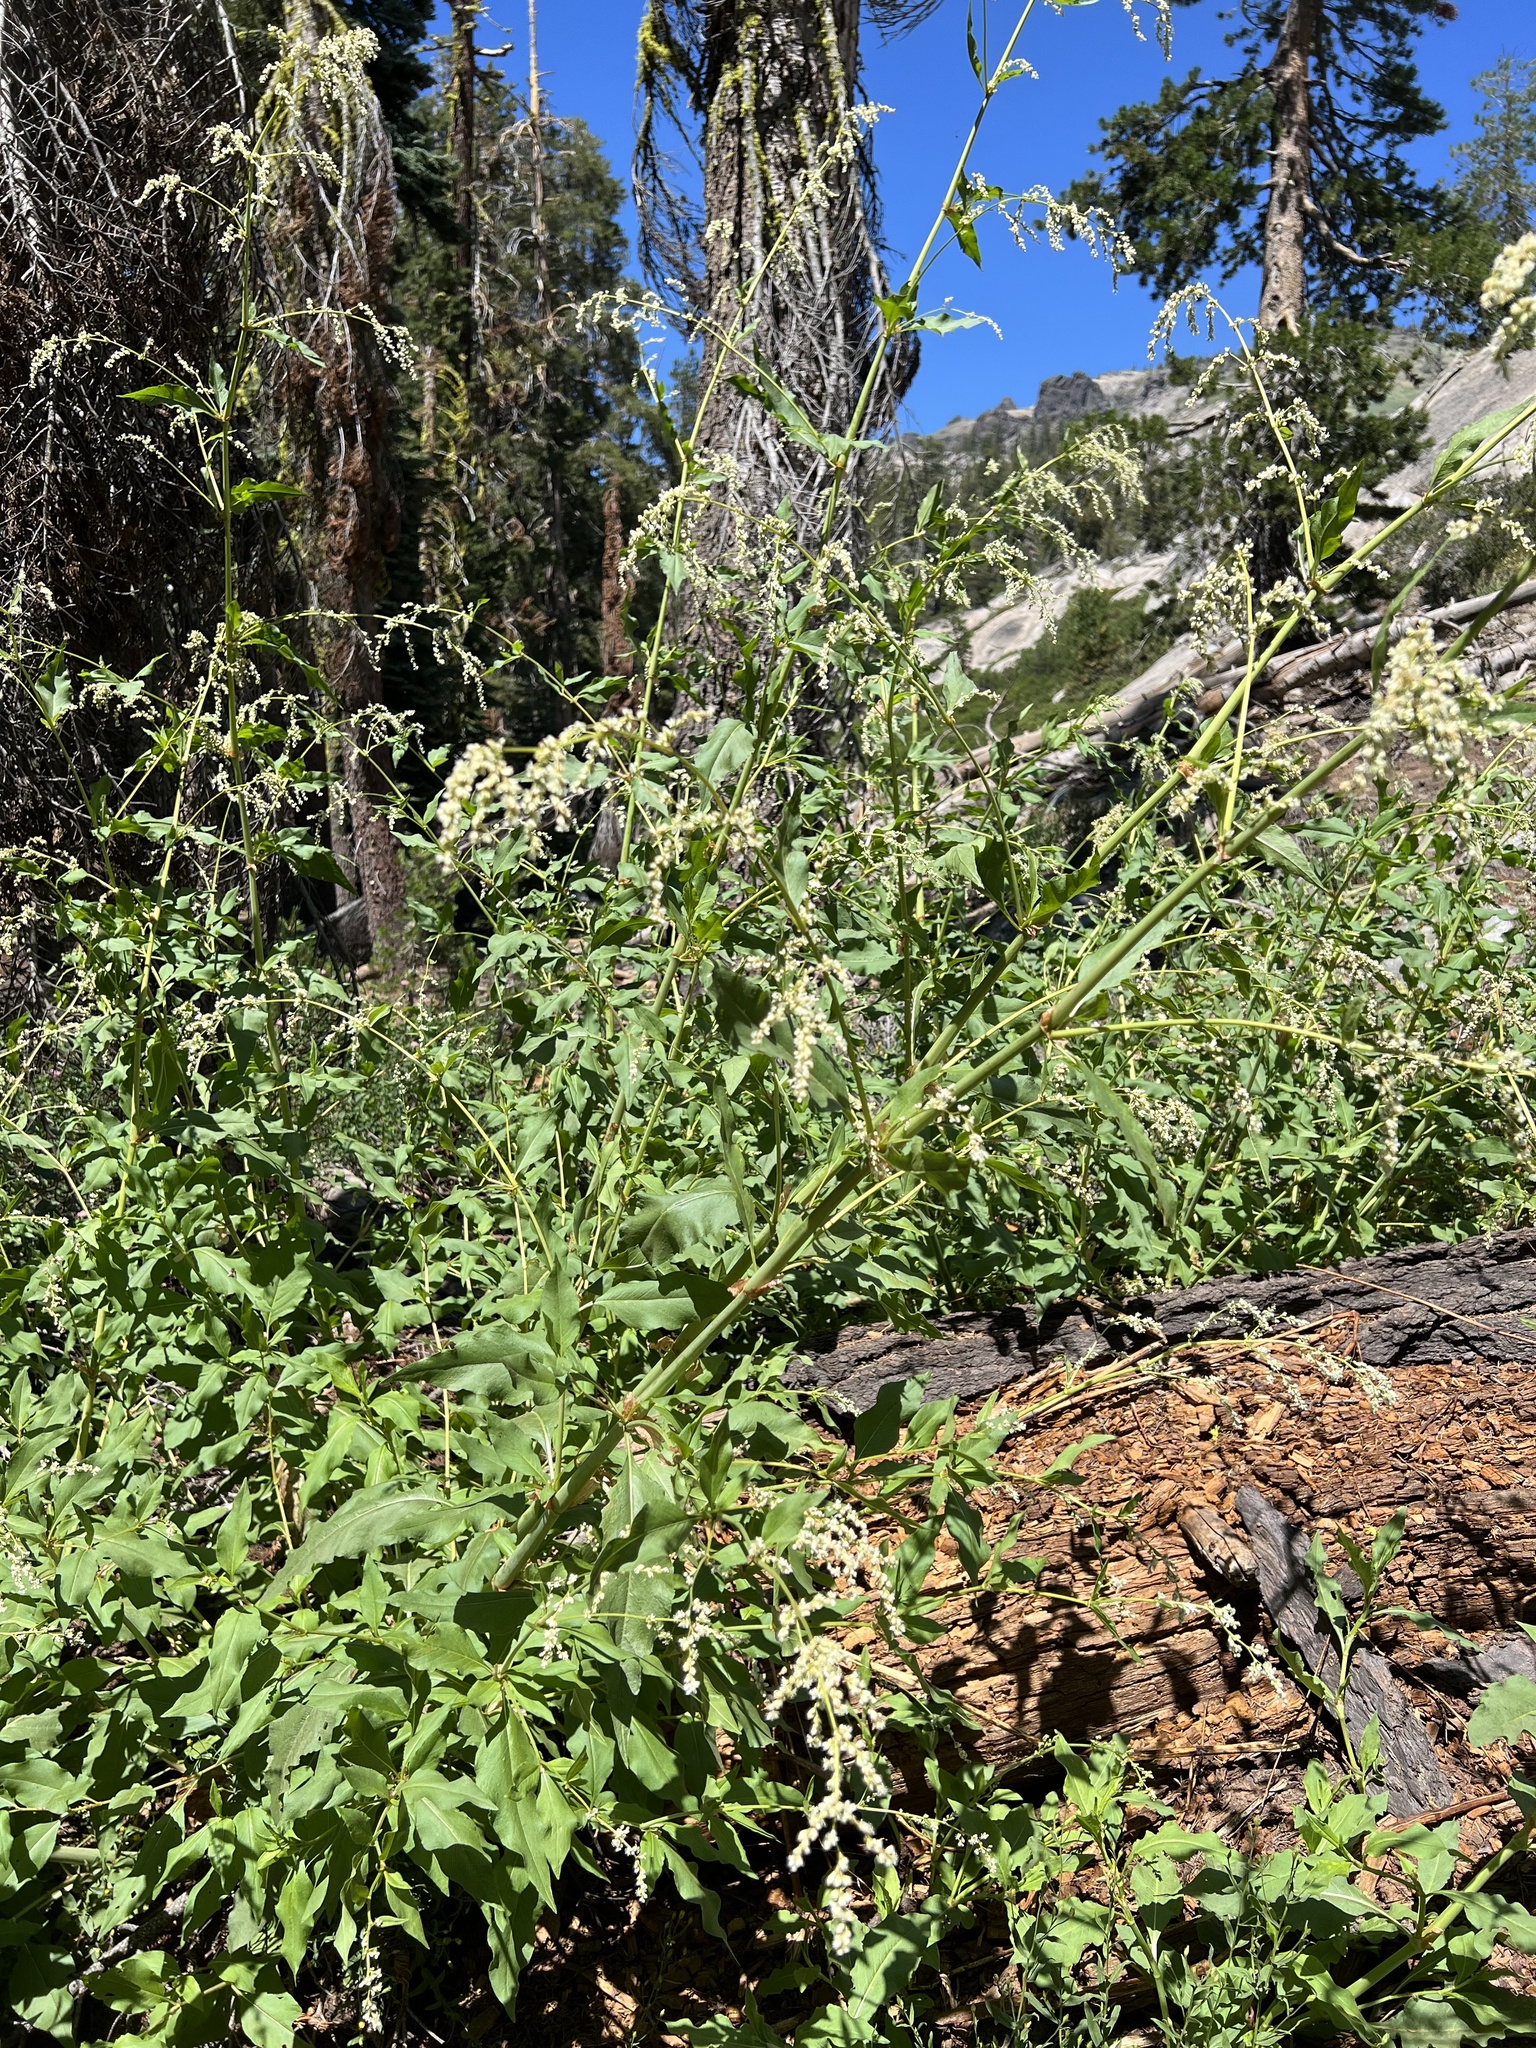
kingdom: Plantae
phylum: Tracheophyta
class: Magnoliopsida
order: Caryophyllales
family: Polygonaceae
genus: Koenigia
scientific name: Koenigia phytolaccifolia
